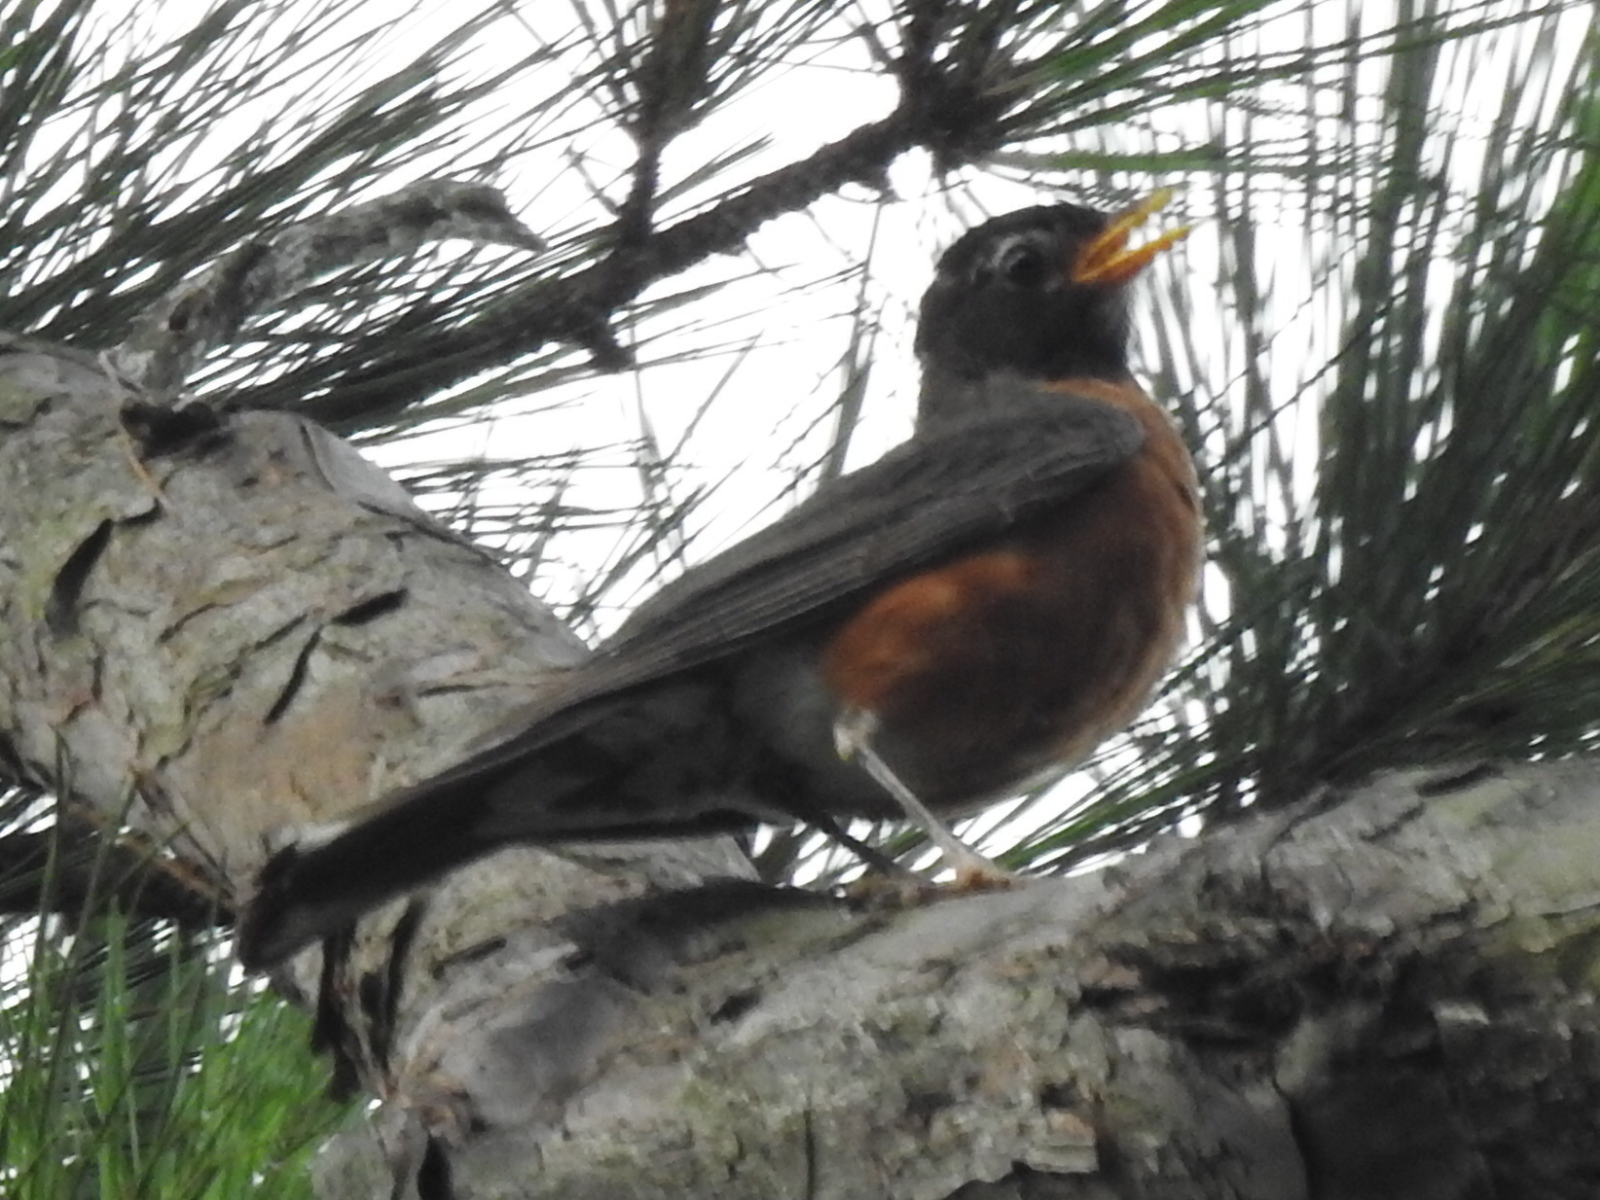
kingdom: Animalia
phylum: Chordata
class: Aves
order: Passeriformes
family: Turdidae
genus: Turdus
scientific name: Turdus migratorius
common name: American robin
